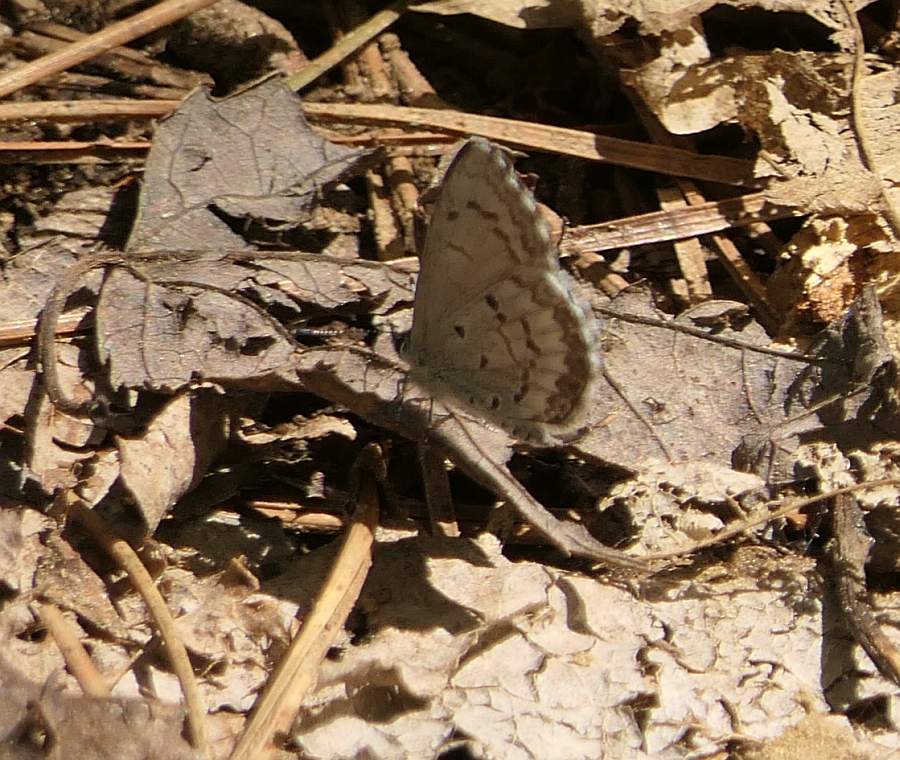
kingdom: Animalia
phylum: Arthropoda
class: Insecta
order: Lepidoptera
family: Lycaenidae
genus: Celastrina
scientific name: Celastrina lucia
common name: Lucia azure
